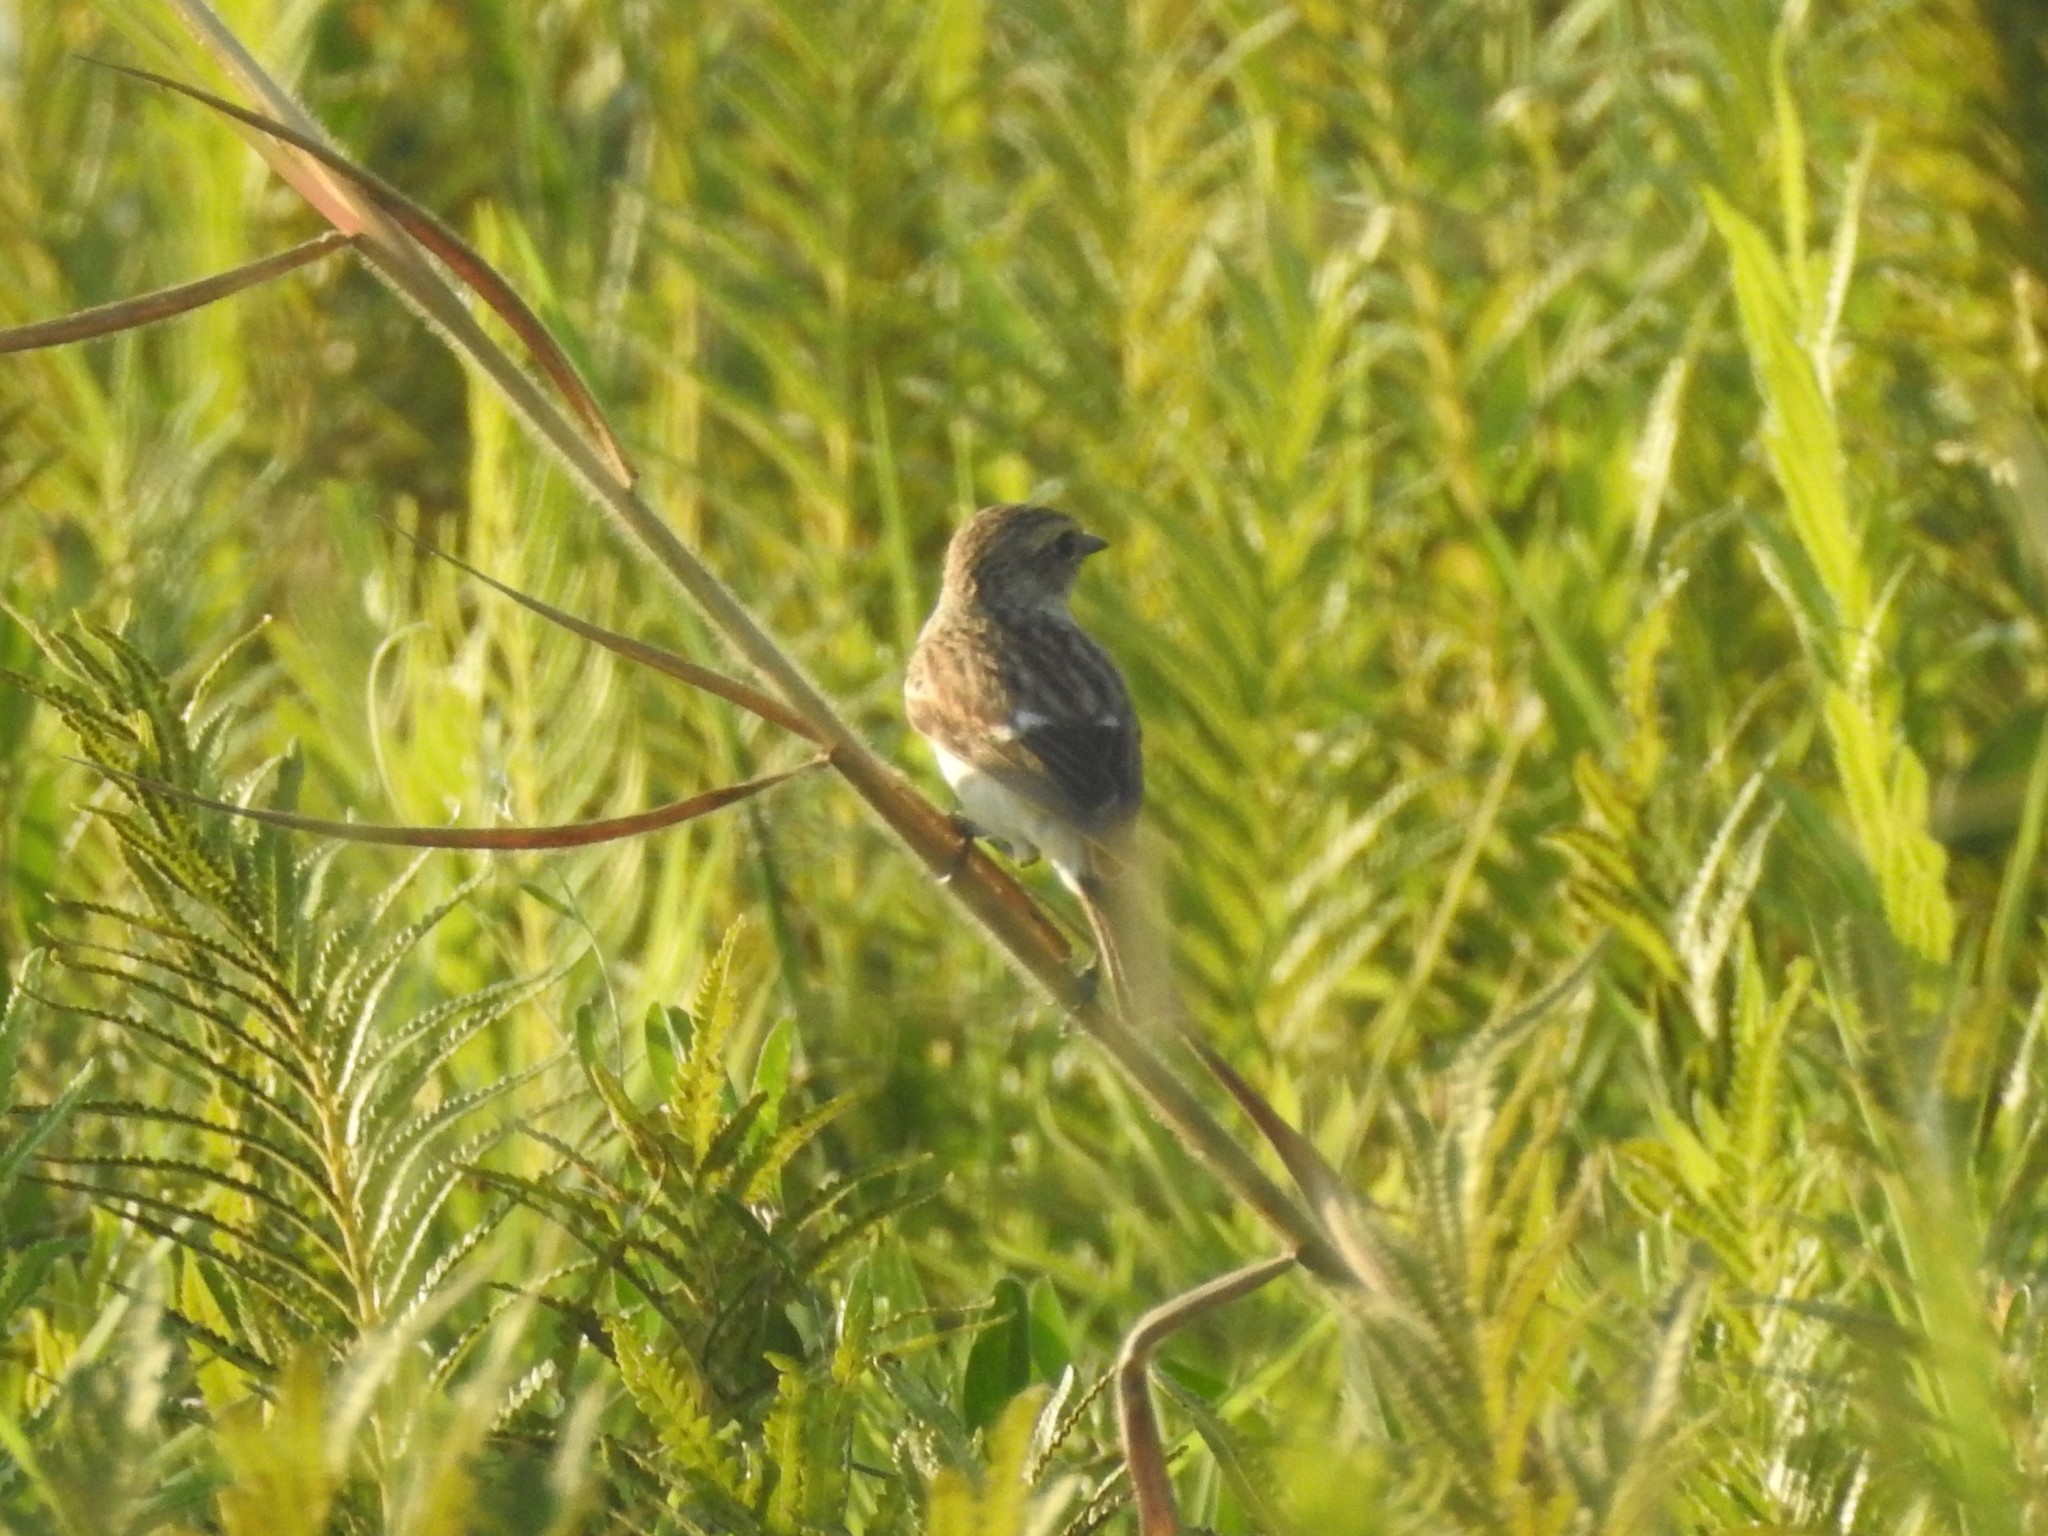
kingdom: Animalia
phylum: Chordata
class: Aves
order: Passeriformes
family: Muscicapidae
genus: Saxicola
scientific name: Saxicola maurus
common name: Siberian stonechat
